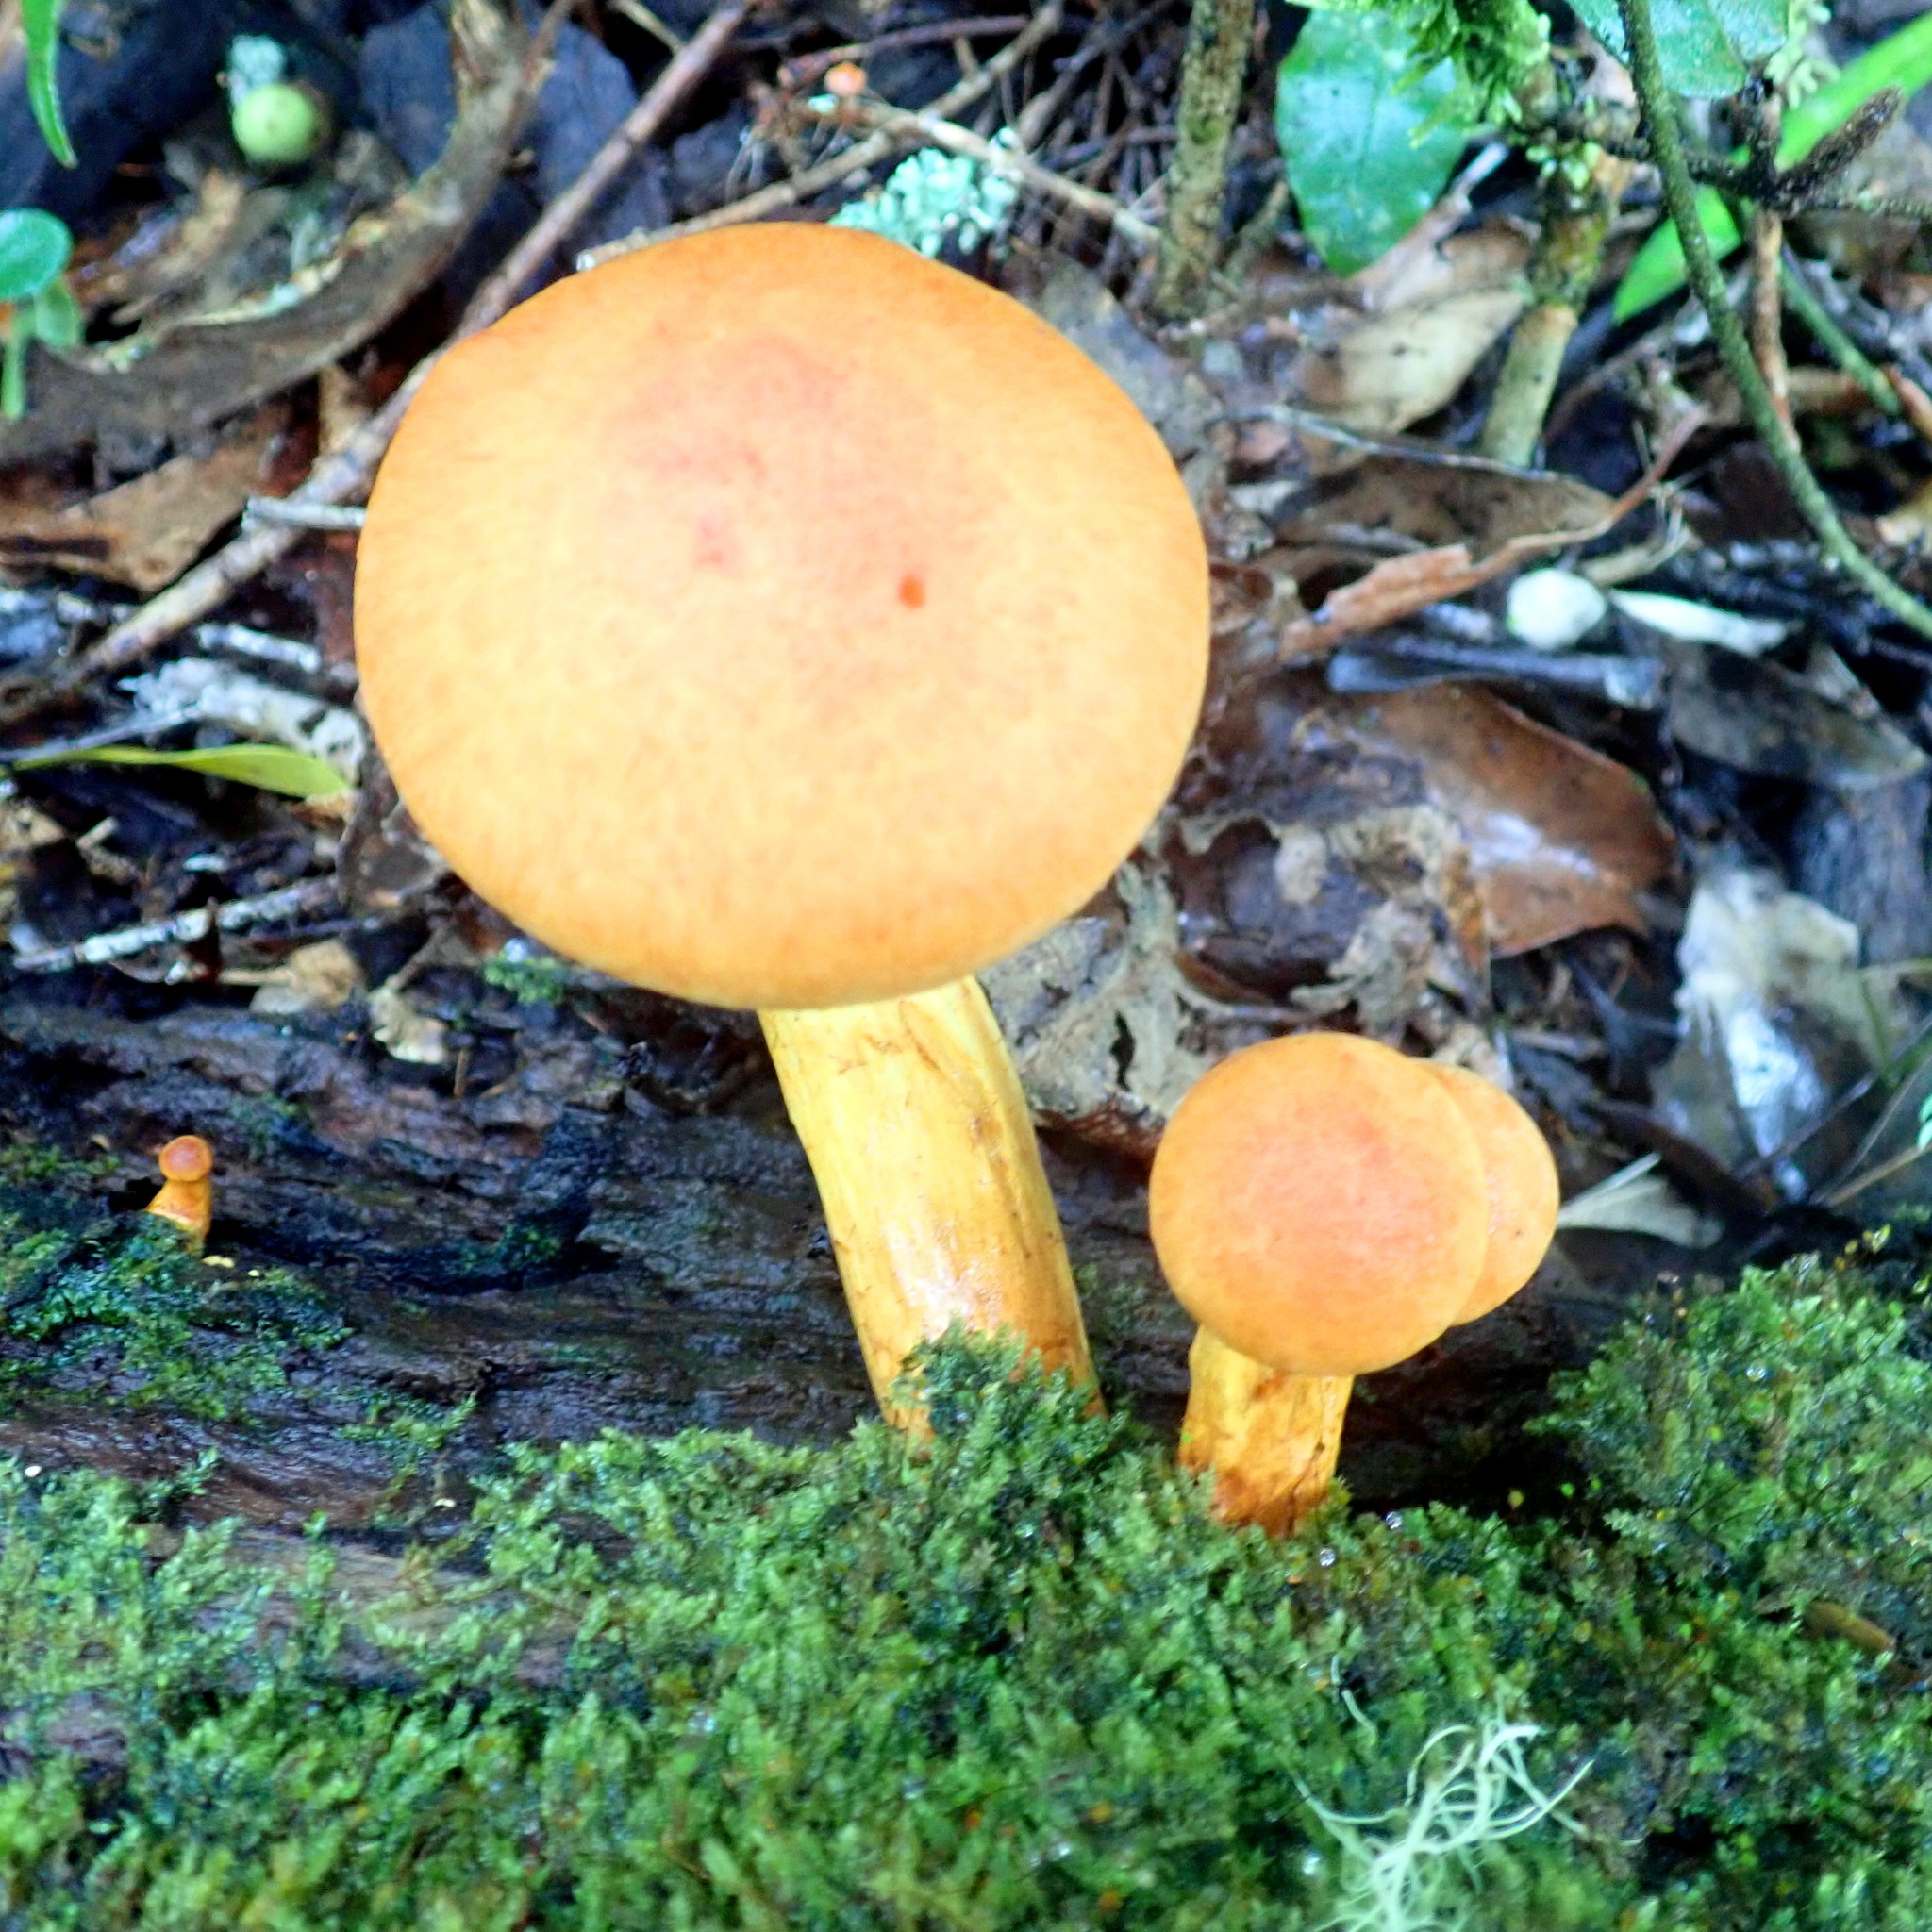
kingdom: Fungi
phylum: Basidiomycota
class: Agaricomycetes
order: Agaricales
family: Hymenogastraceae
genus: Gymnopilus
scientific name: Gymnopilus junonius
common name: Spectacular rustgill
